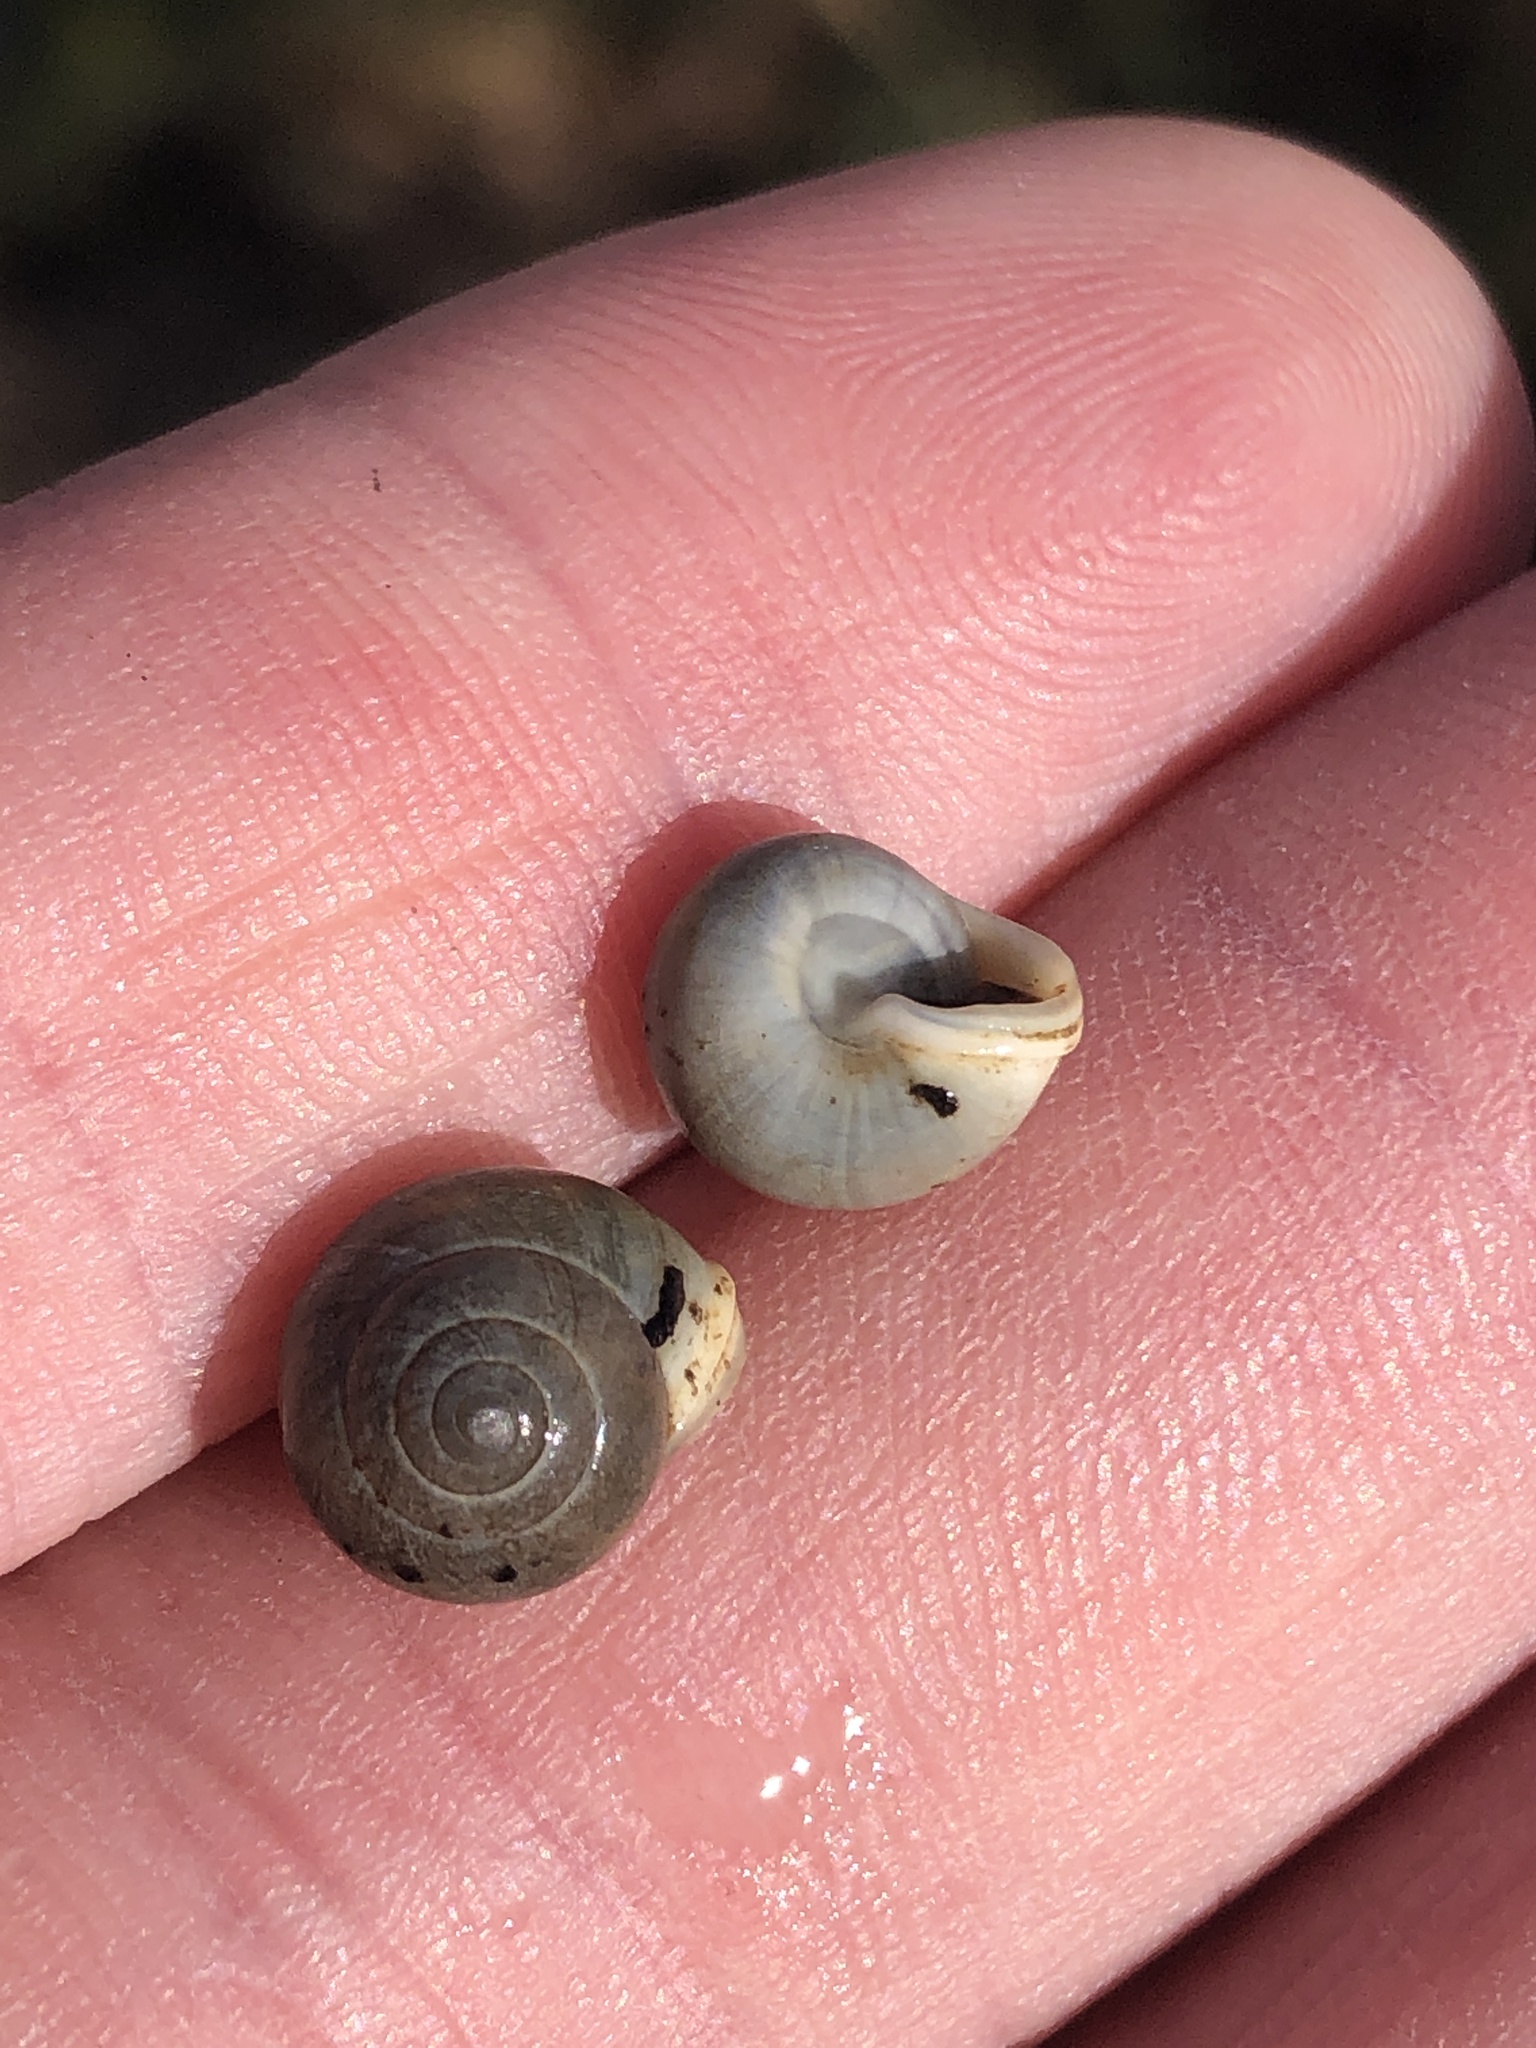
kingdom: Animalia
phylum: Mollusca
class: Gastropoda
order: Cycloneritida
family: Helicinidae
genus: Helicina
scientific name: Helicina orbiculata
